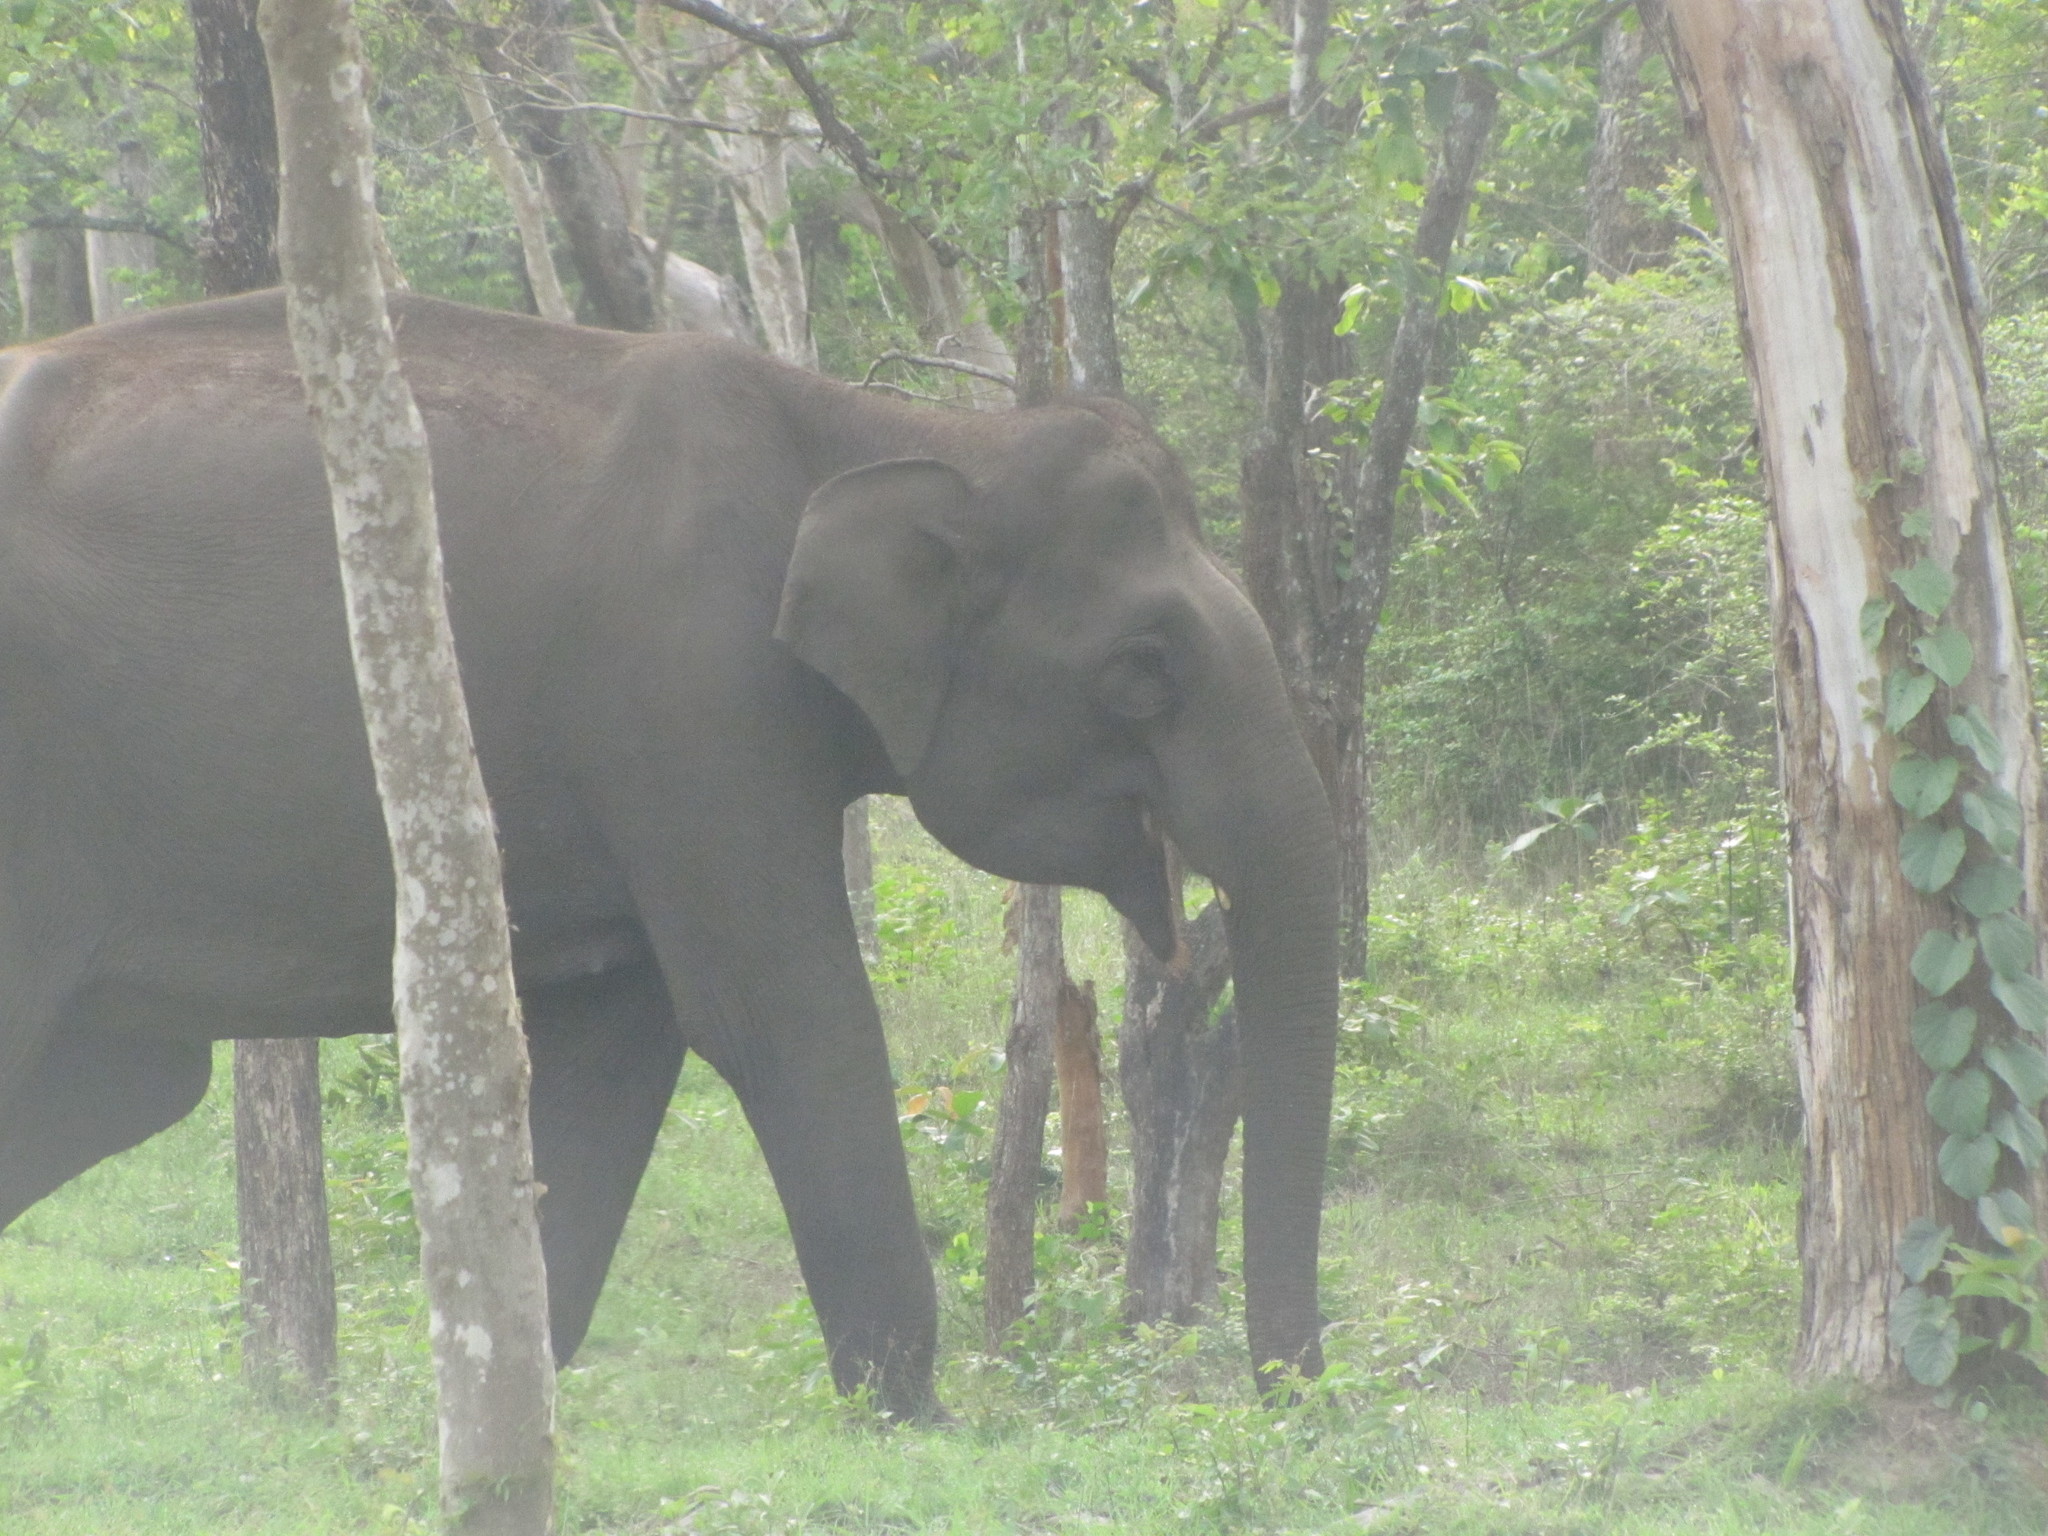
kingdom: Animalia
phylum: Chordata
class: Mammalia
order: Proboscidea
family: Elephantidae
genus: Elephas
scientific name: Elephas maximus
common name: Asian elephant
